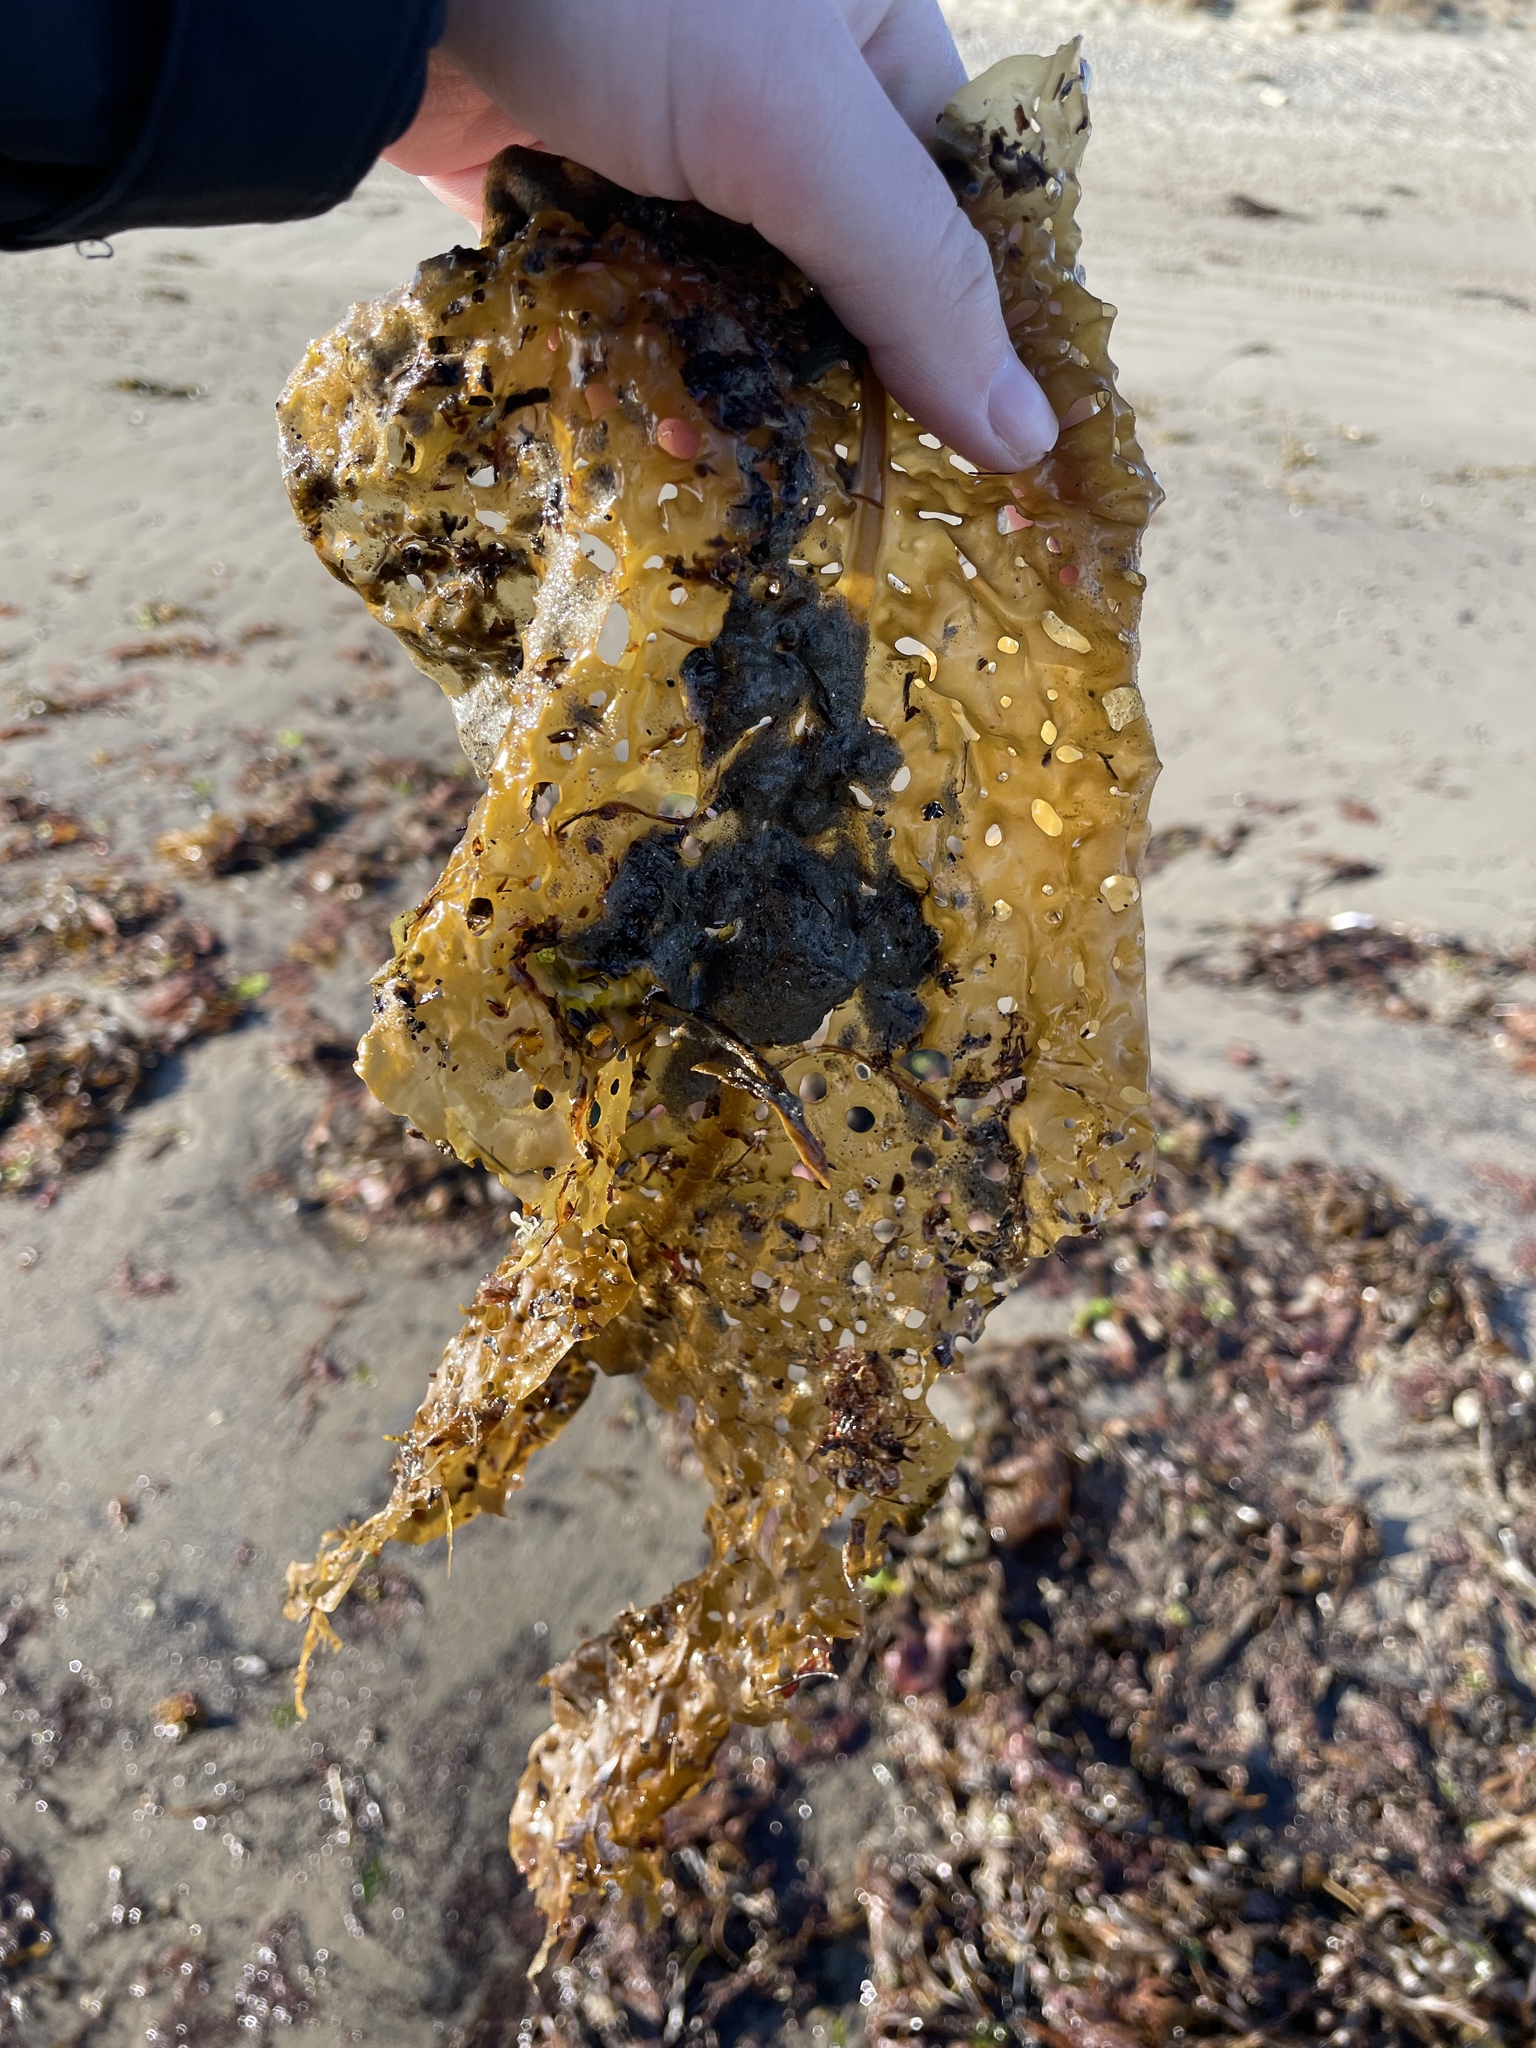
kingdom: Chromista
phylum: Ochrophyta
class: Phaeophyceae
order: Laminariales
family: Costariaceae
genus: Agarum
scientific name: Agarum clathratum
